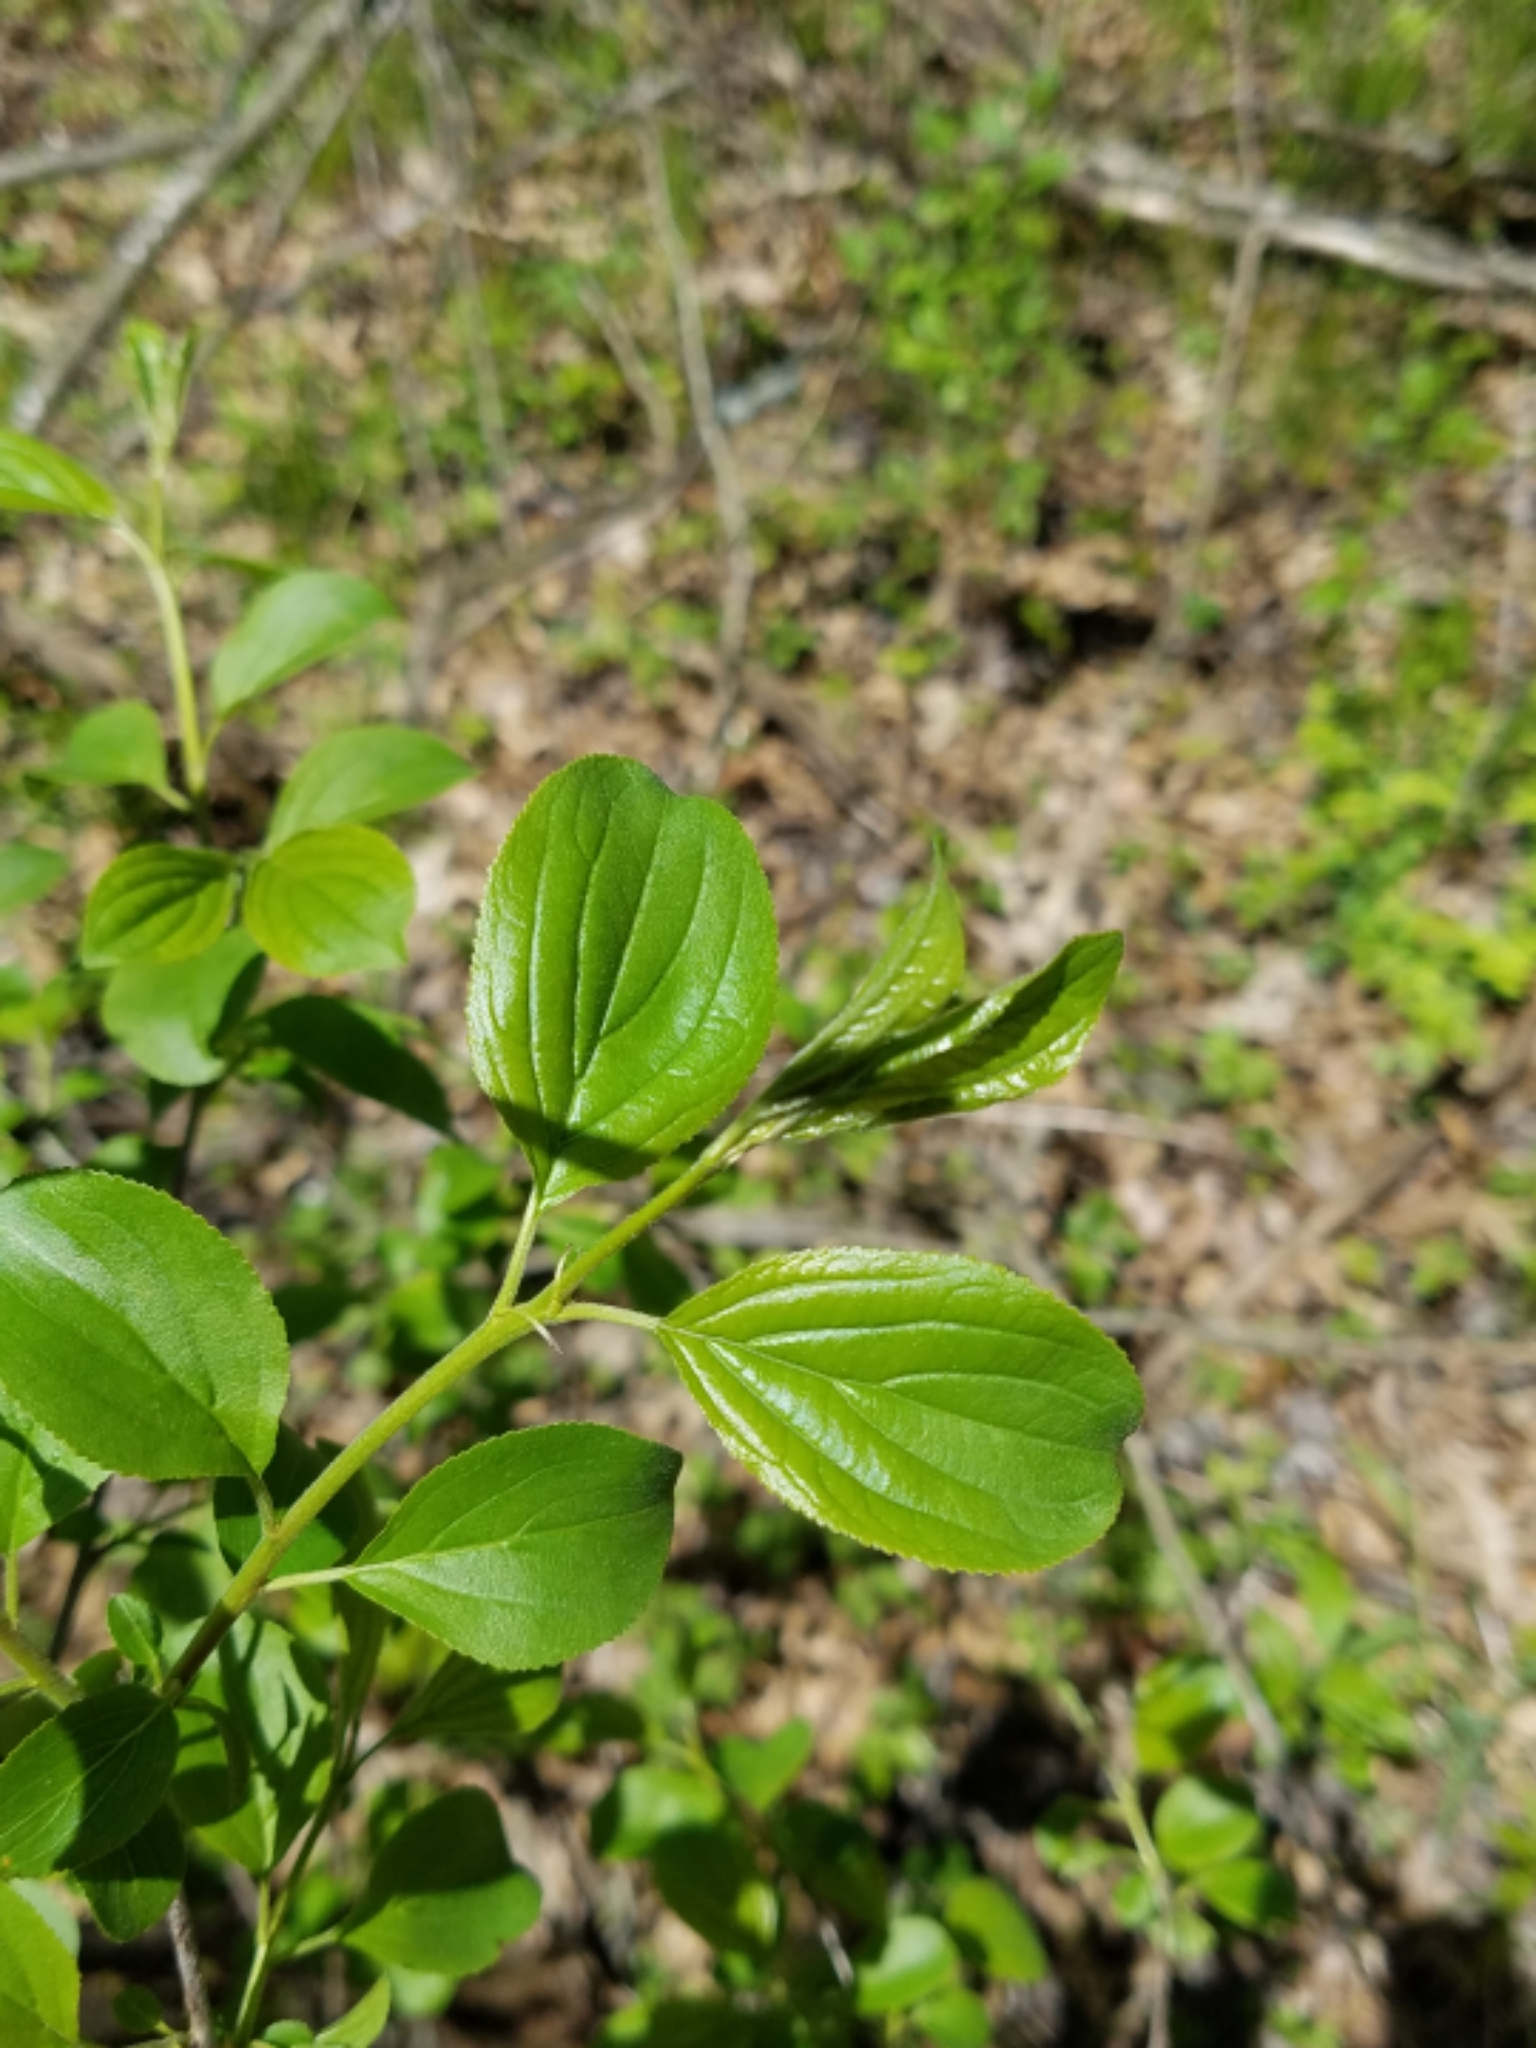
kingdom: Plantae
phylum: Tracheophyta
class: Magnoliopsida
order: Rosales
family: Rhamnaceae
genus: Rhamnus
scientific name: Rhamnus cathartica
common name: Common buckthorn
